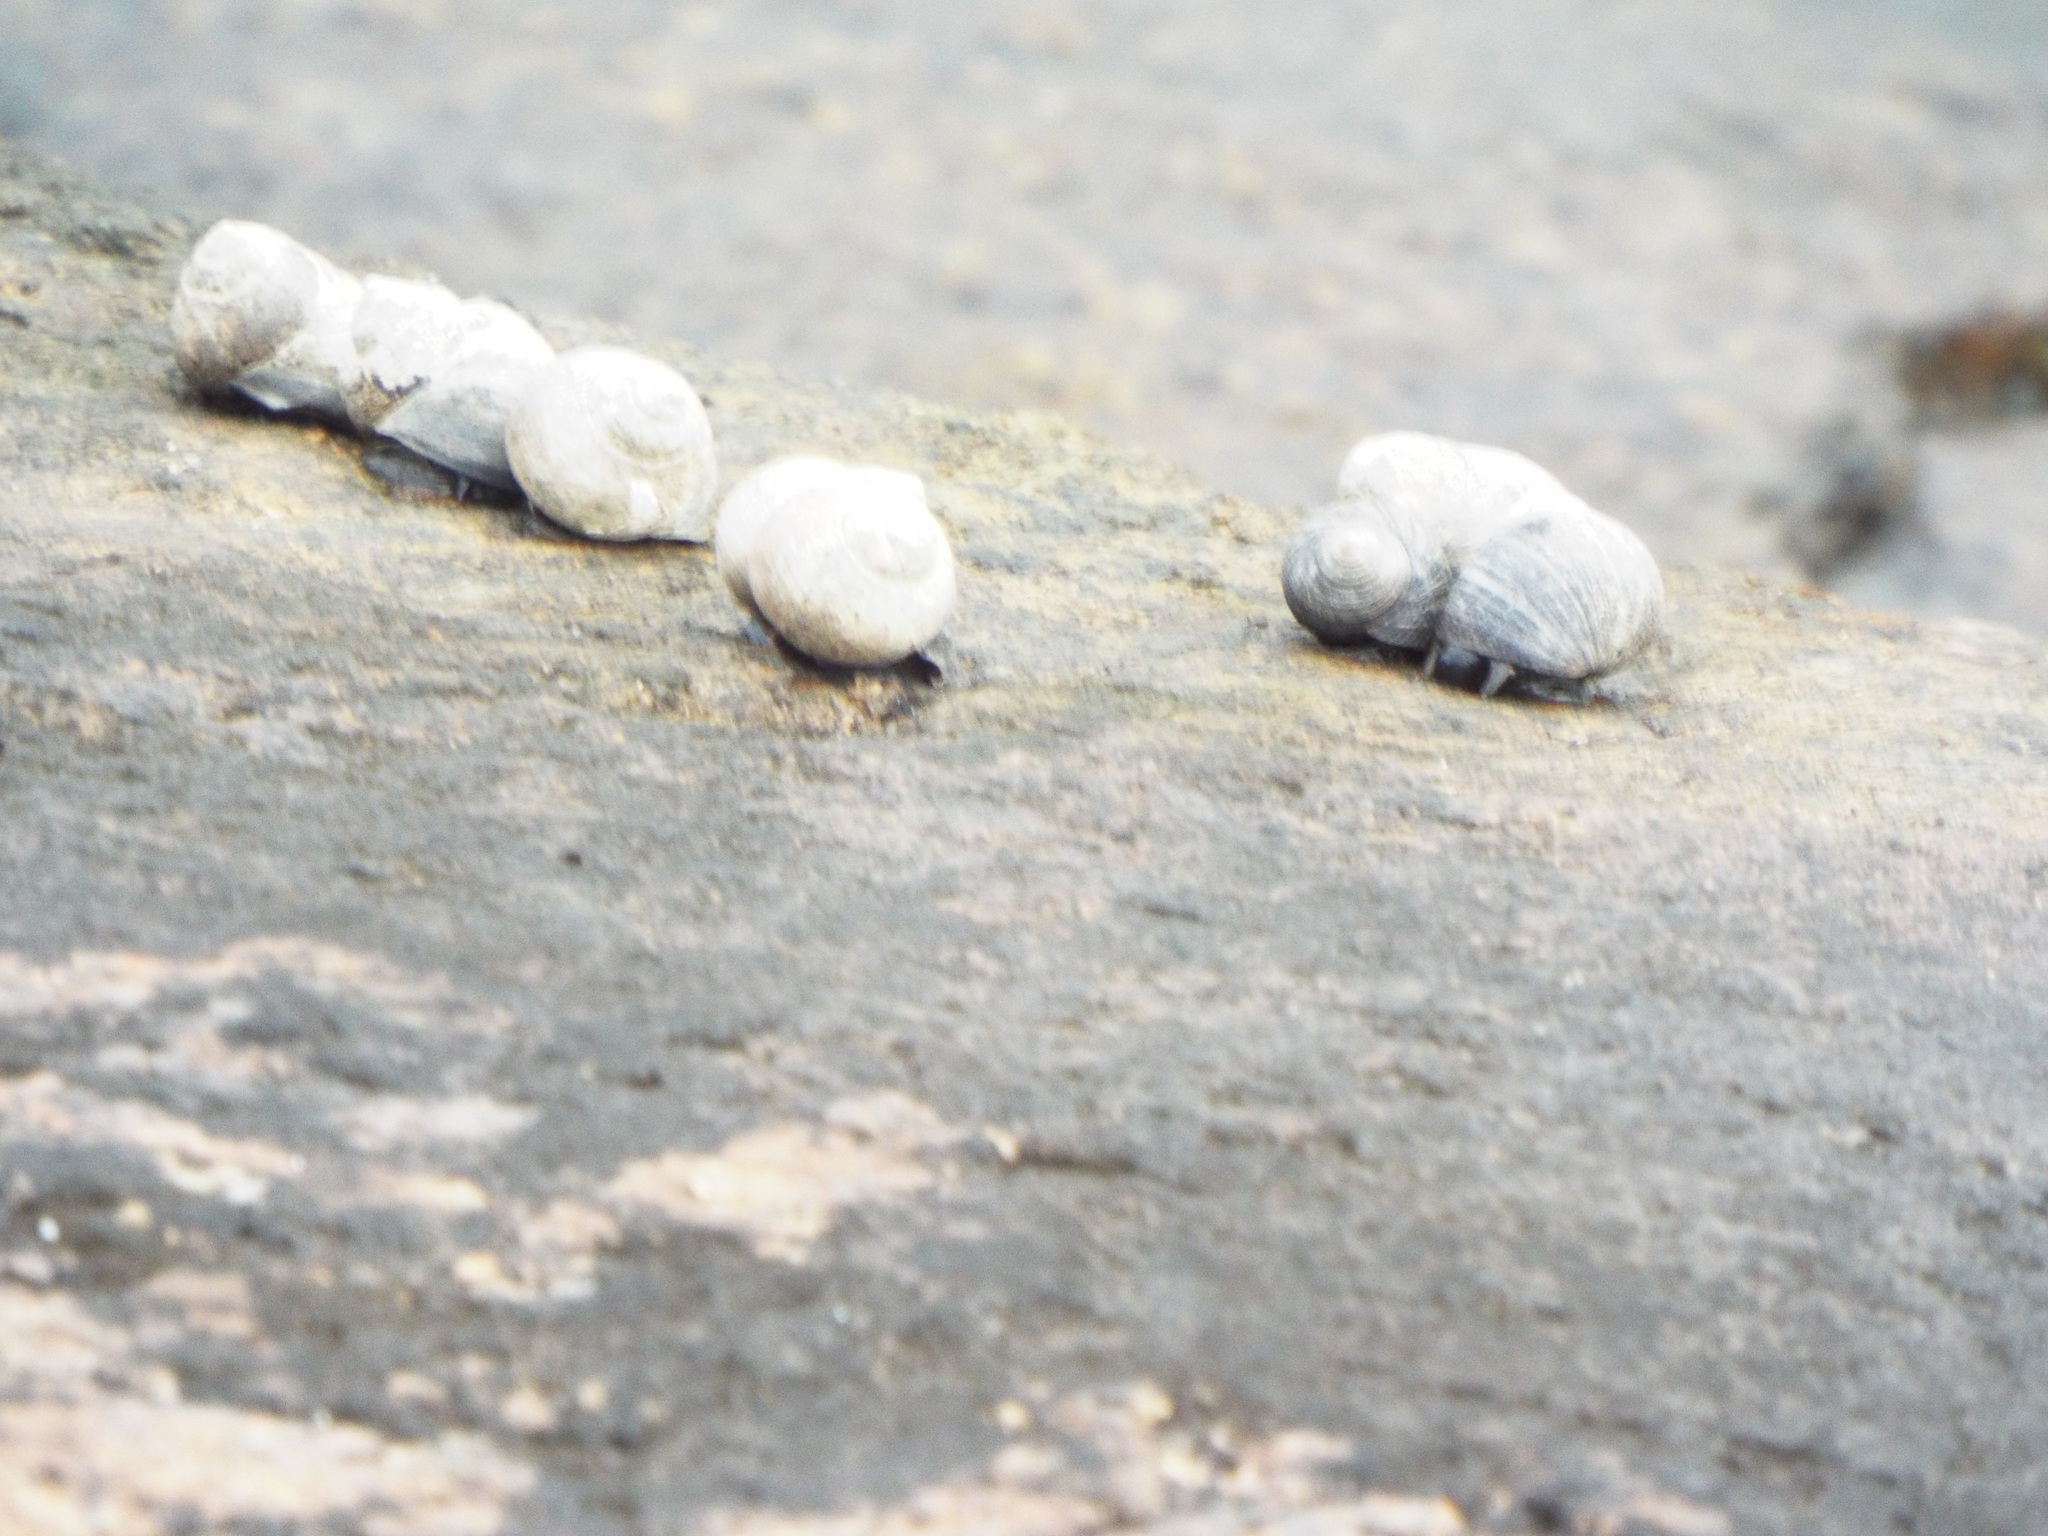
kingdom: Animalia
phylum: Mollusca
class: Gastropoda
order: Littorinimorpha
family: Littorinidae
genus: Littorina
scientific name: Littorina littorea
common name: Common periwinkle
